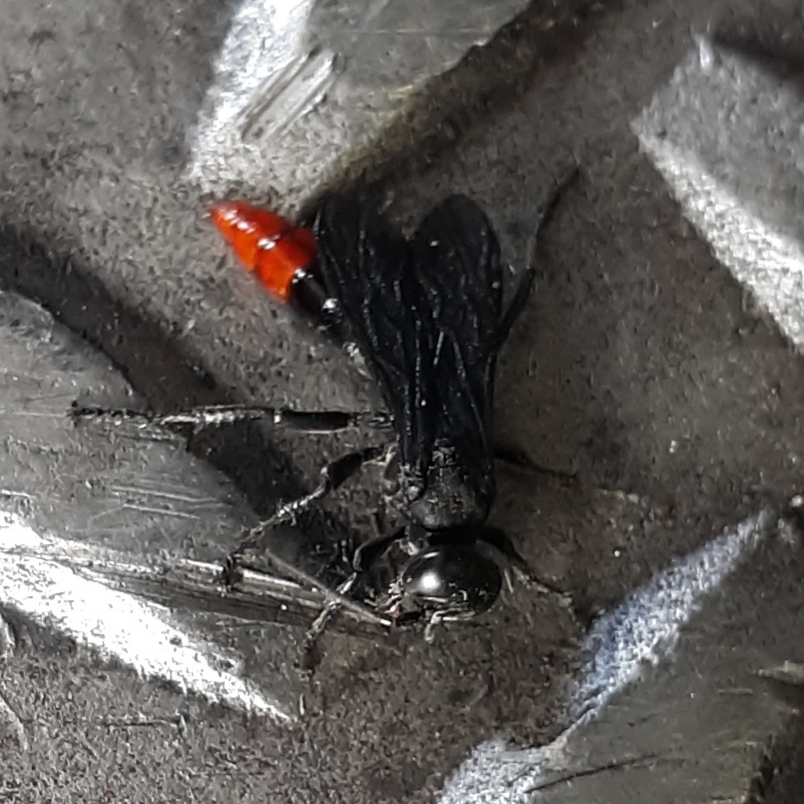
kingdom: Animalia
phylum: Arthropoda
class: Insecta
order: Hymenoptera
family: Crabronidae
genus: Larra
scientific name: Larra analis
